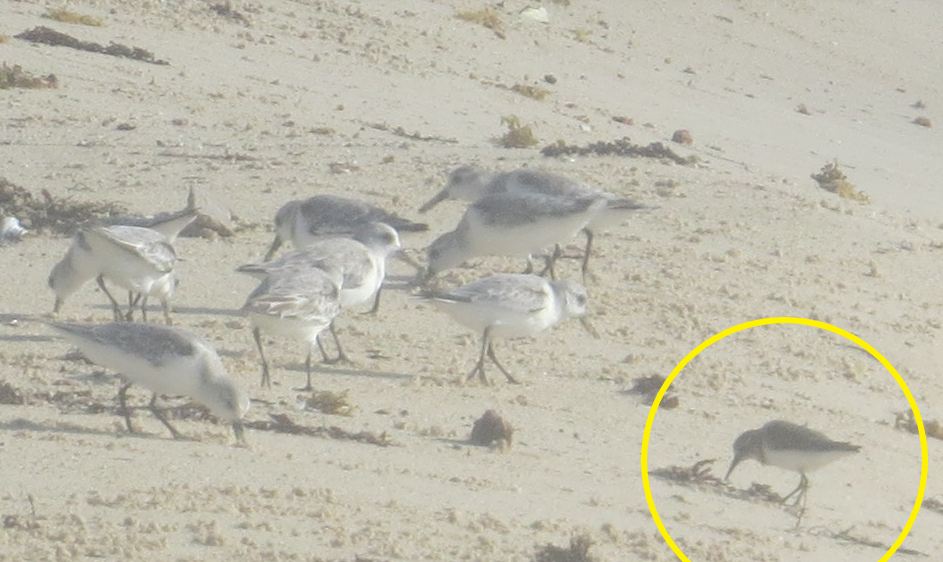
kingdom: Animalia
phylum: Chordata
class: Aves
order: Charadriiformes
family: Scolopacidae
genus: Calidris
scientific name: Calidris minutilla
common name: Least sandpiper
